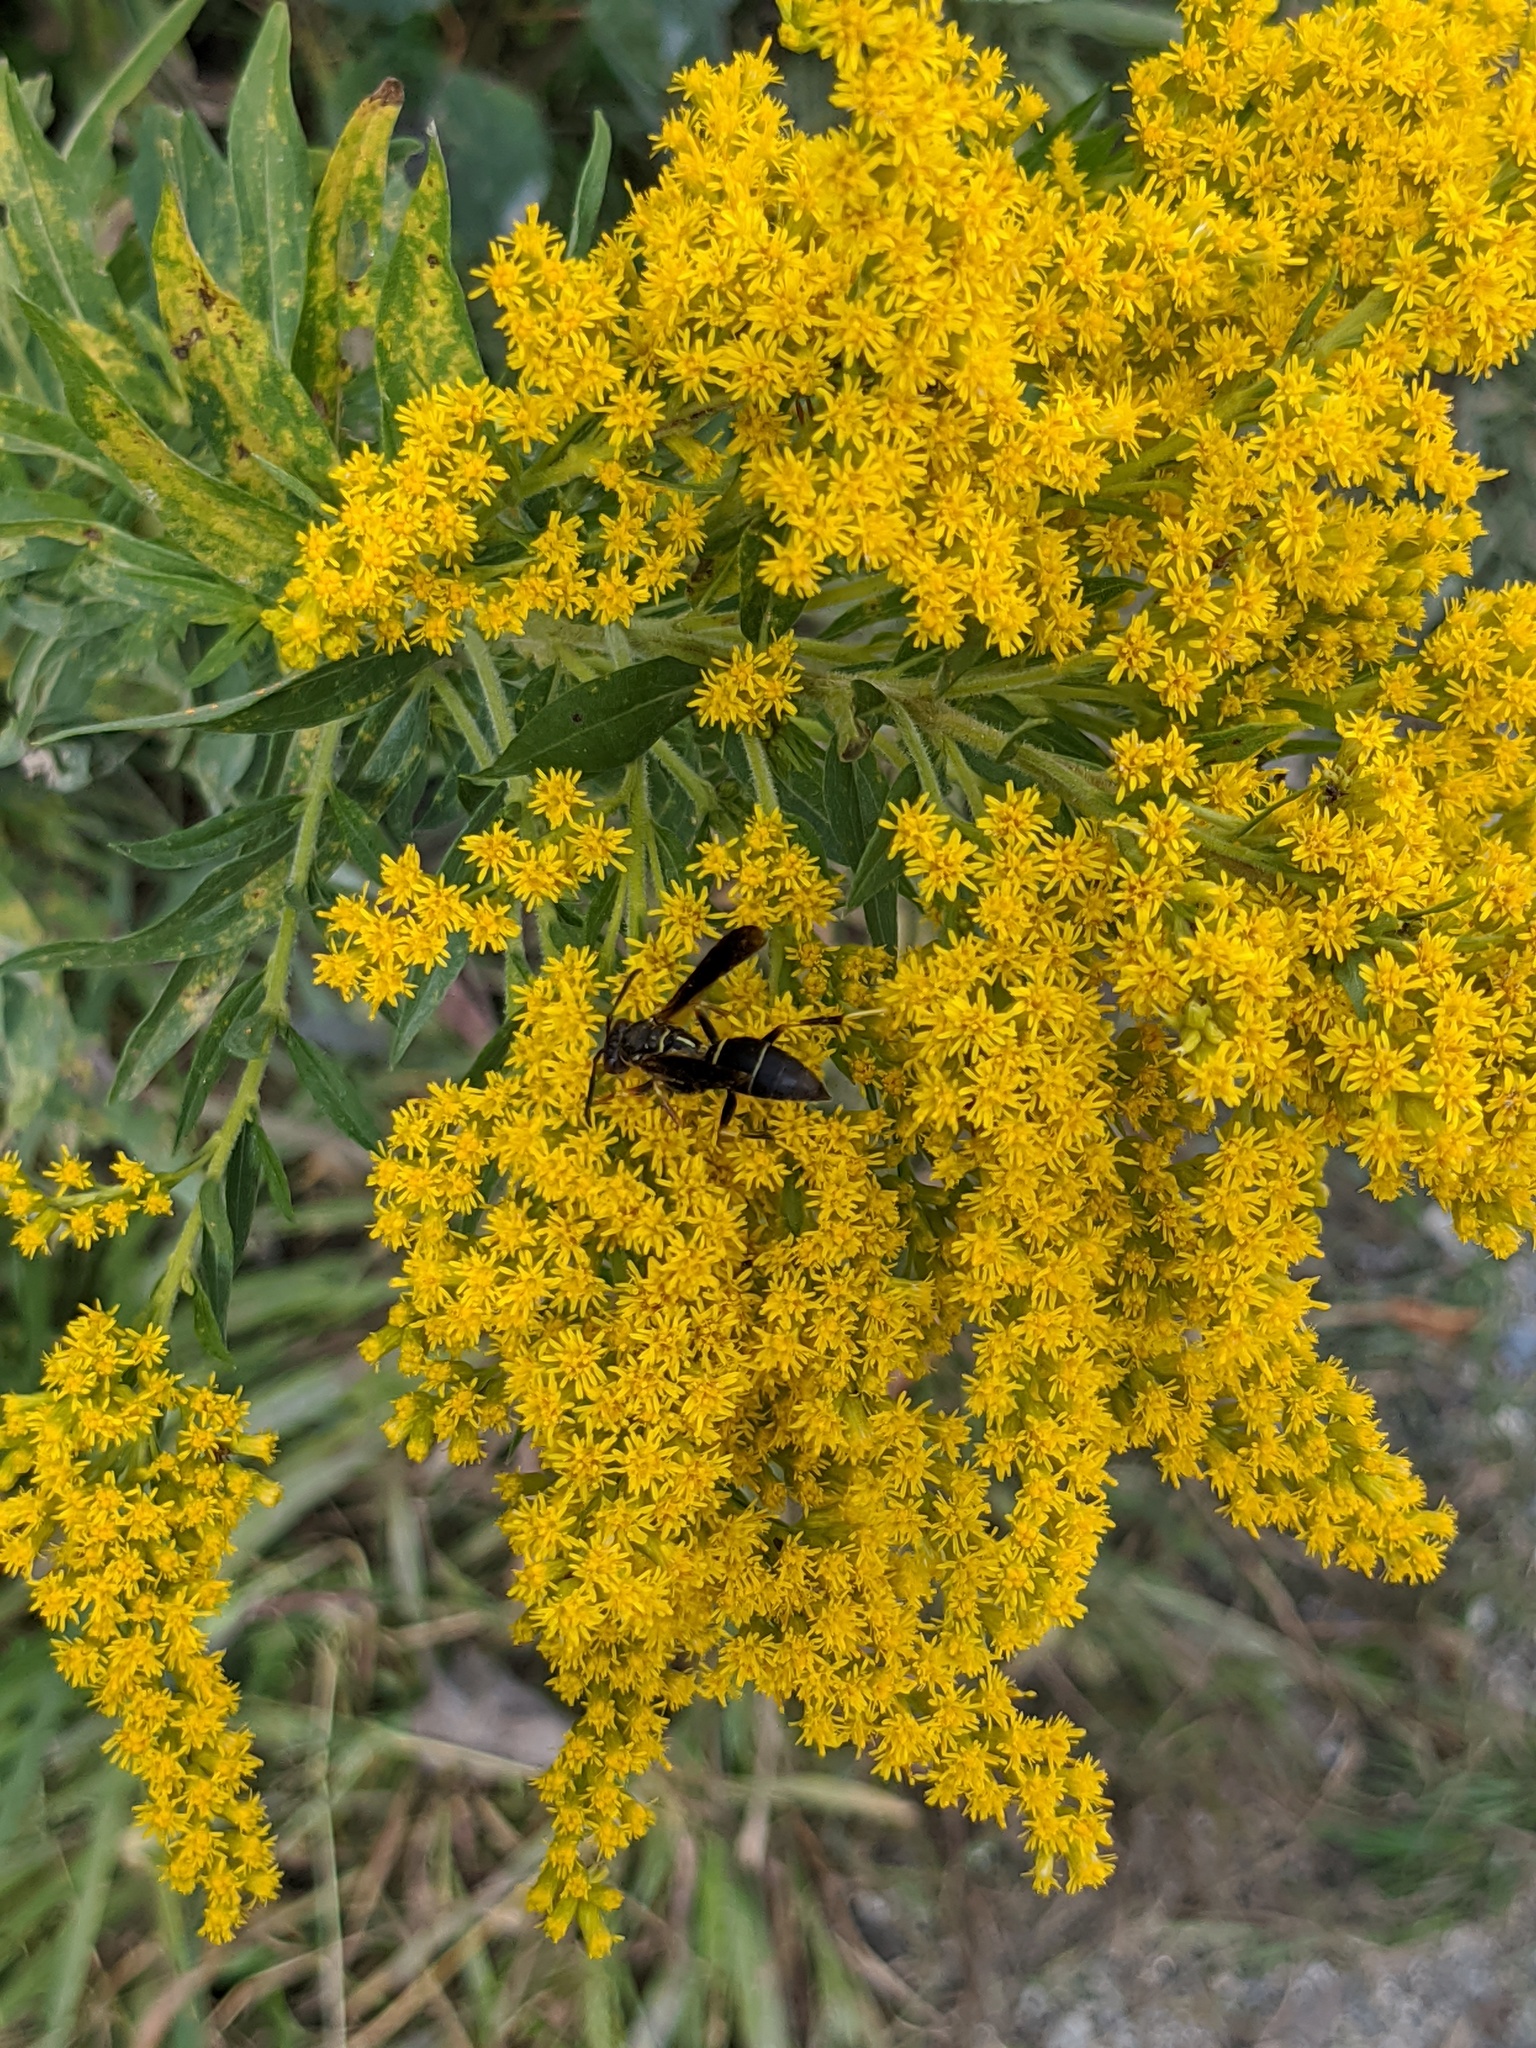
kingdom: Animalia
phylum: Arthropoda
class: Insecta
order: Hymenoptera
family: Eumenidae
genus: Polistes
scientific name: Polistes fuscatus
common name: Dark paper wasp
